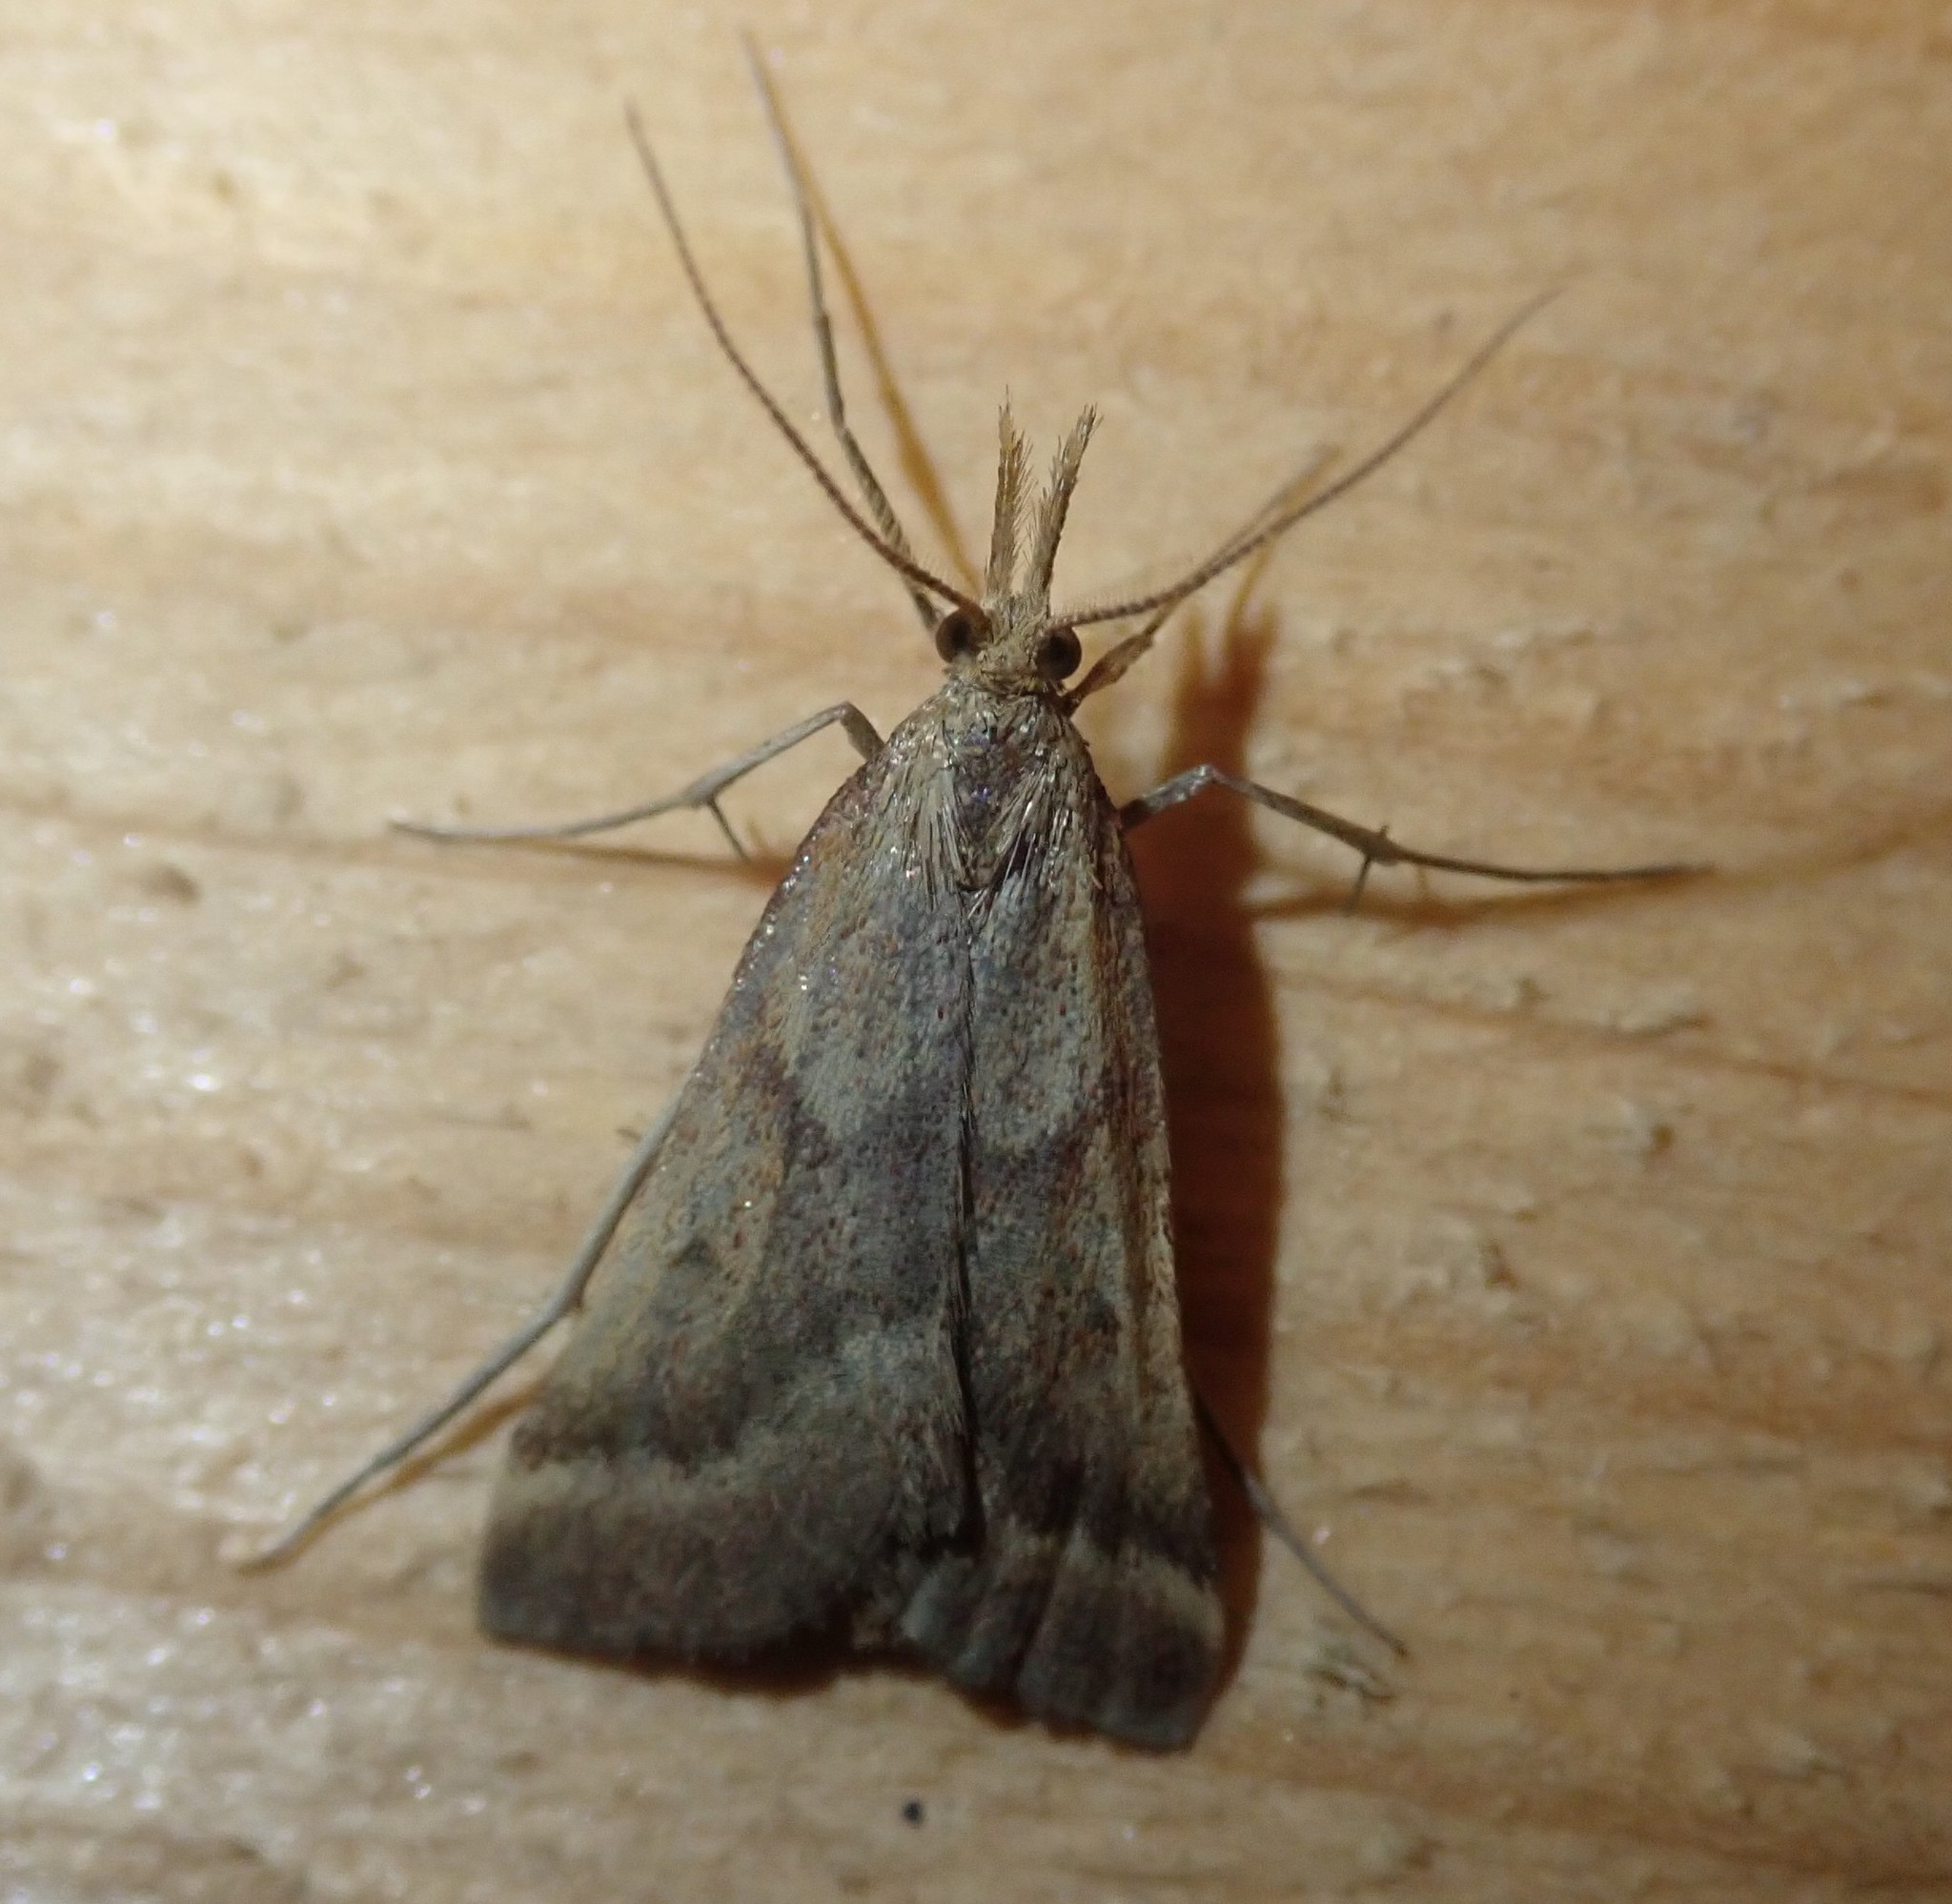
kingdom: Animalia
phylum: Arthropoda
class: Insecta
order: Lepidoptera
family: Pyralidae
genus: Synaphe
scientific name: Synaphe punctalis
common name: Long-legged tabby
